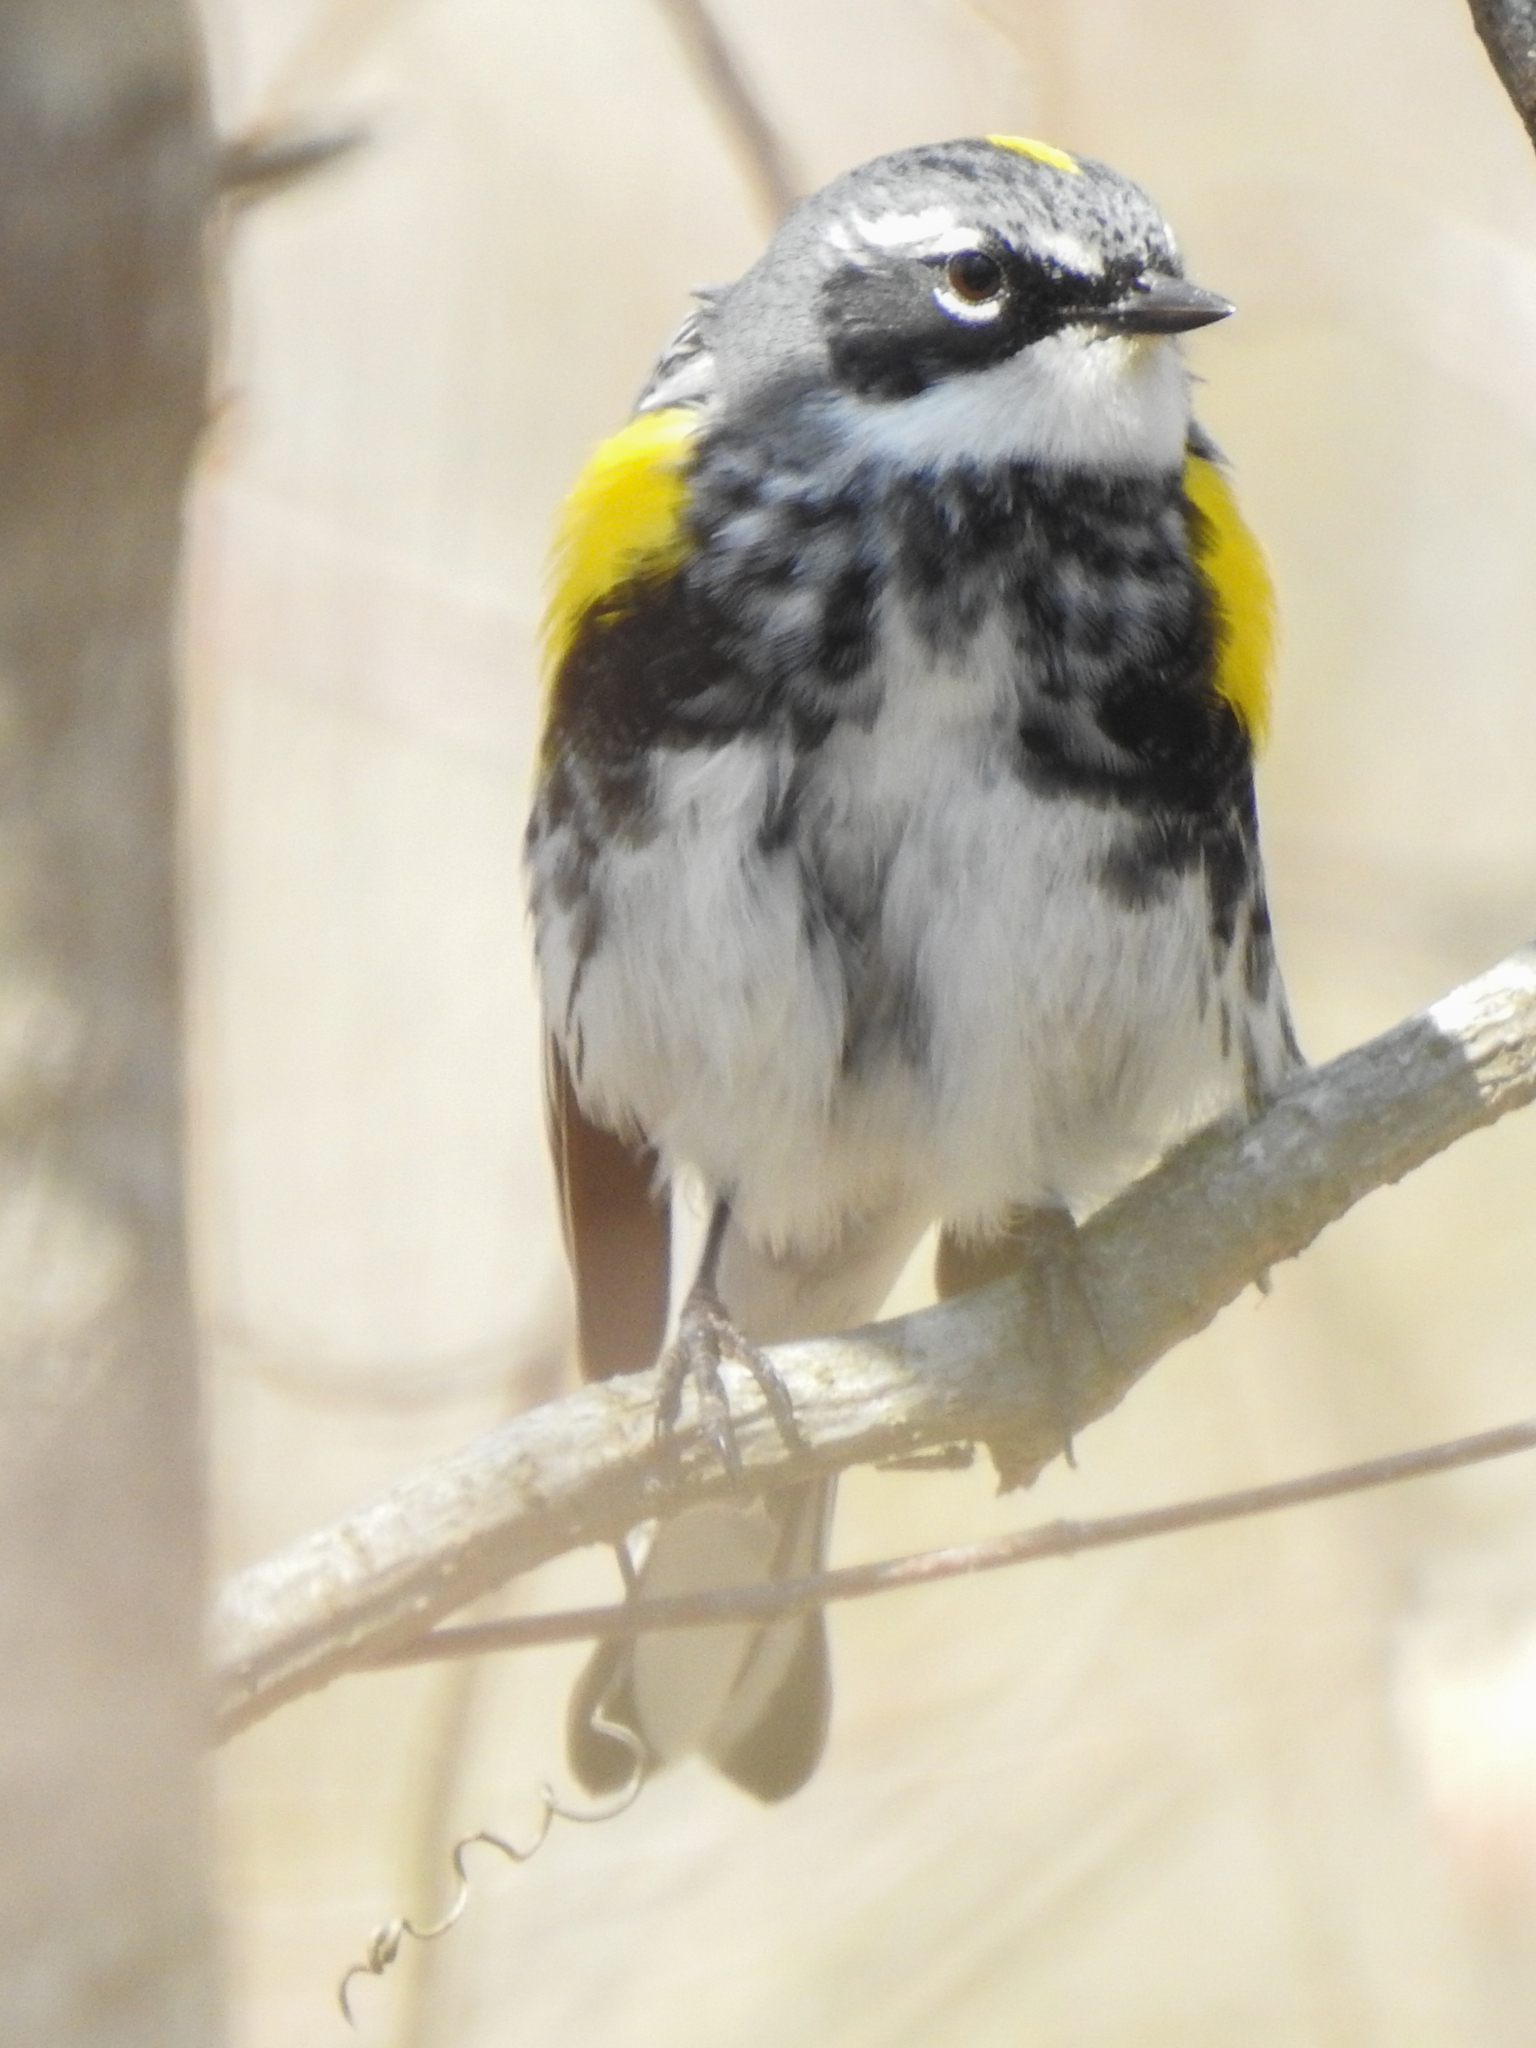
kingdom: Animalia
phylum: Chordata
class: Aves
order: Passeriformes
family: Parulidae
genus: Setophaga
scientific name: Setophaga coronata
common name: Myrtle warbler
